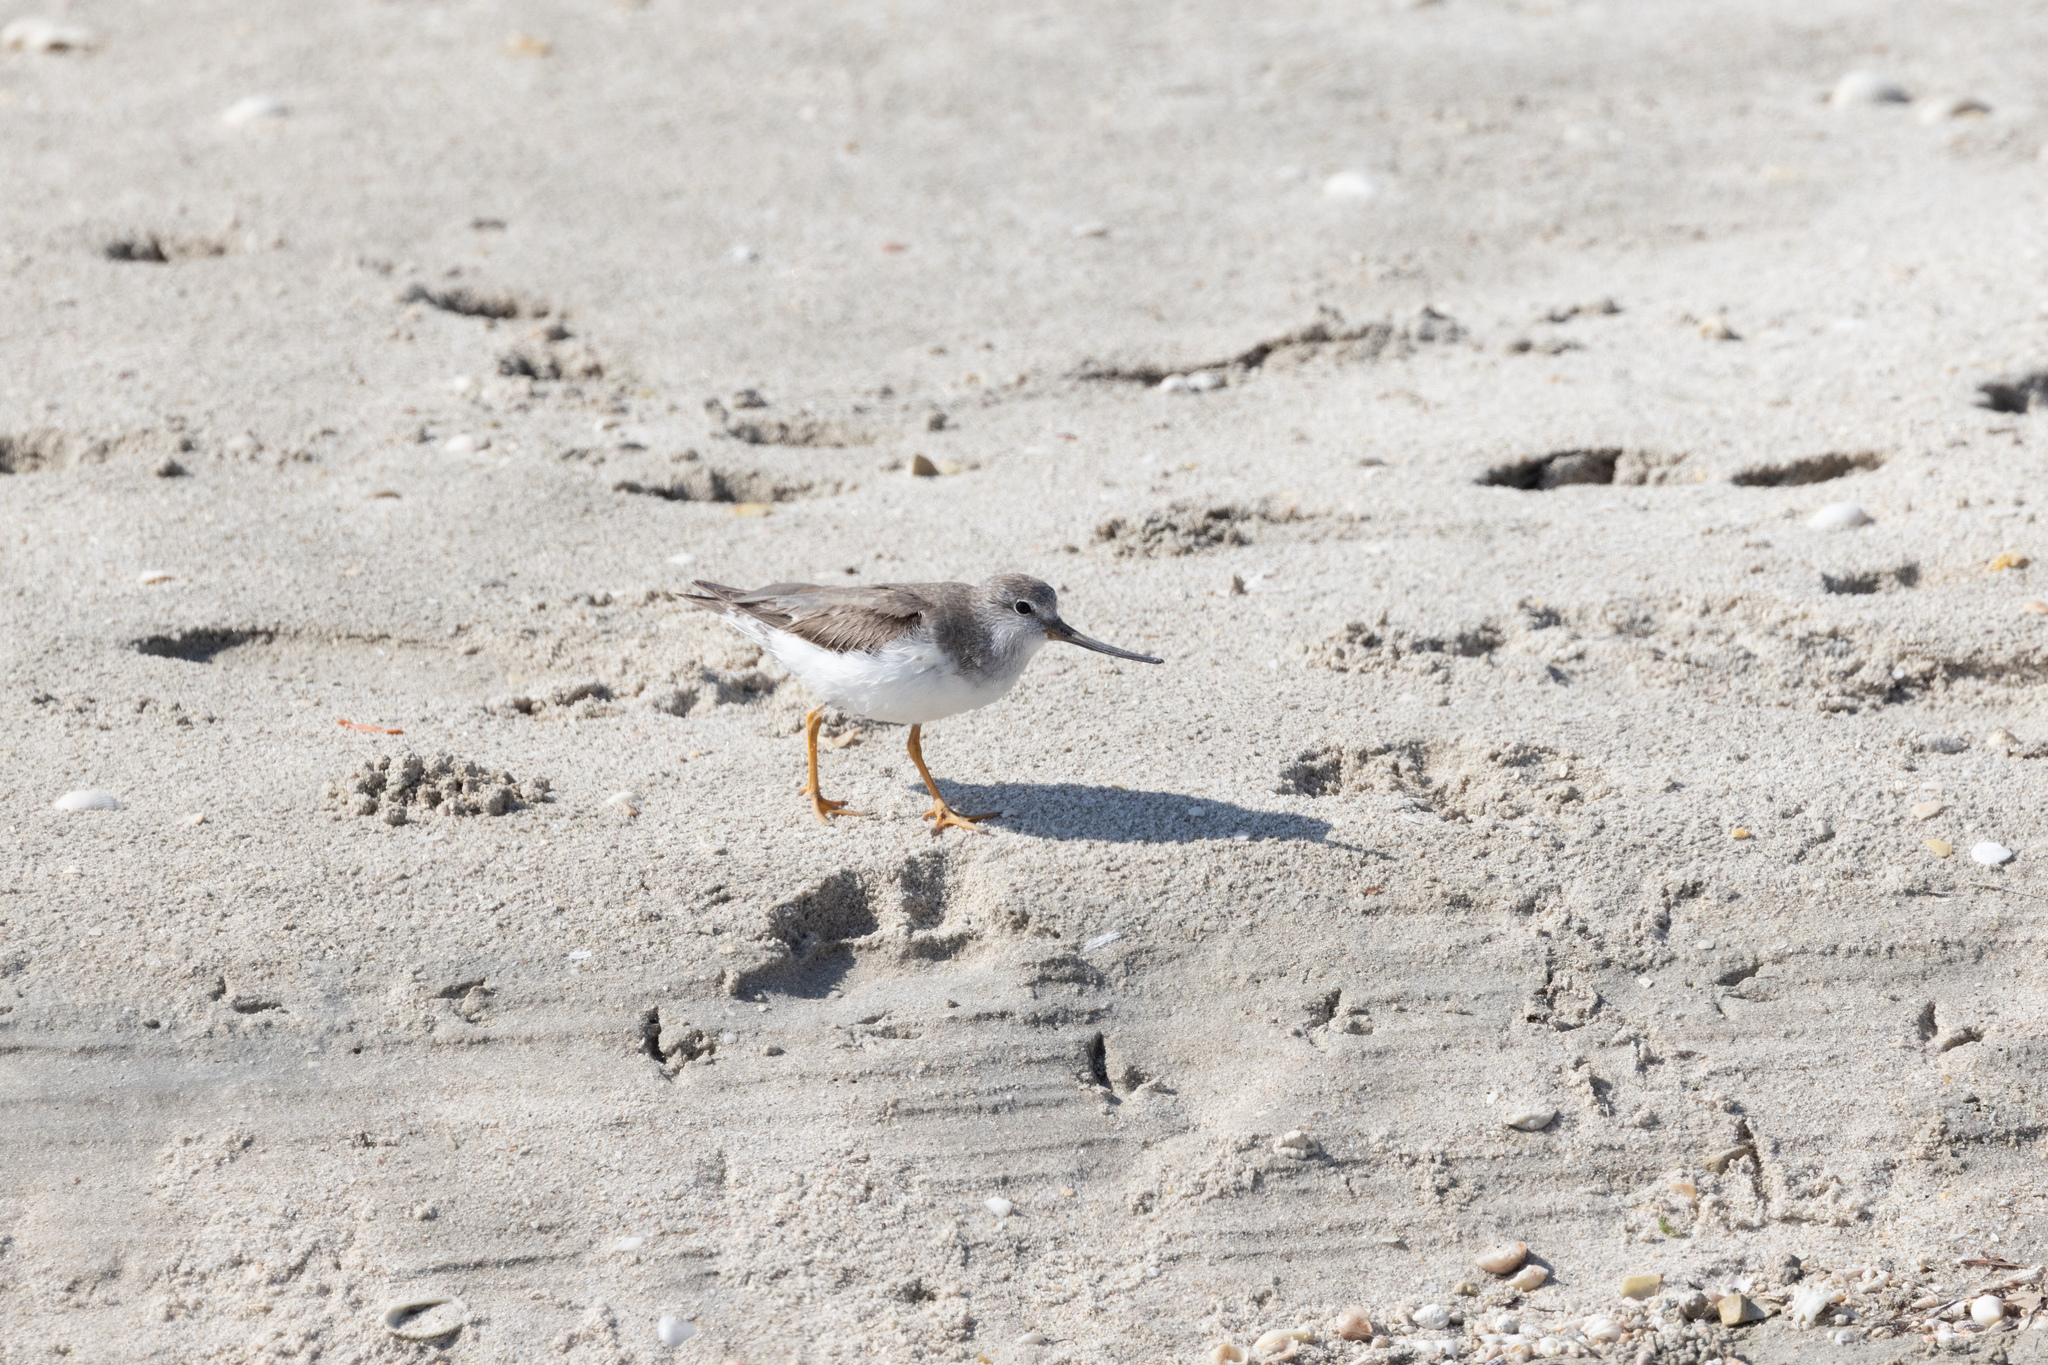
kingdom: Animalia
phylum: Chordata
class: Aves
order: Charadriiformes
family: Scolopacidae
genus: Xenus
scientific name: Xenus cinereus
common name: Terek sandpiper
